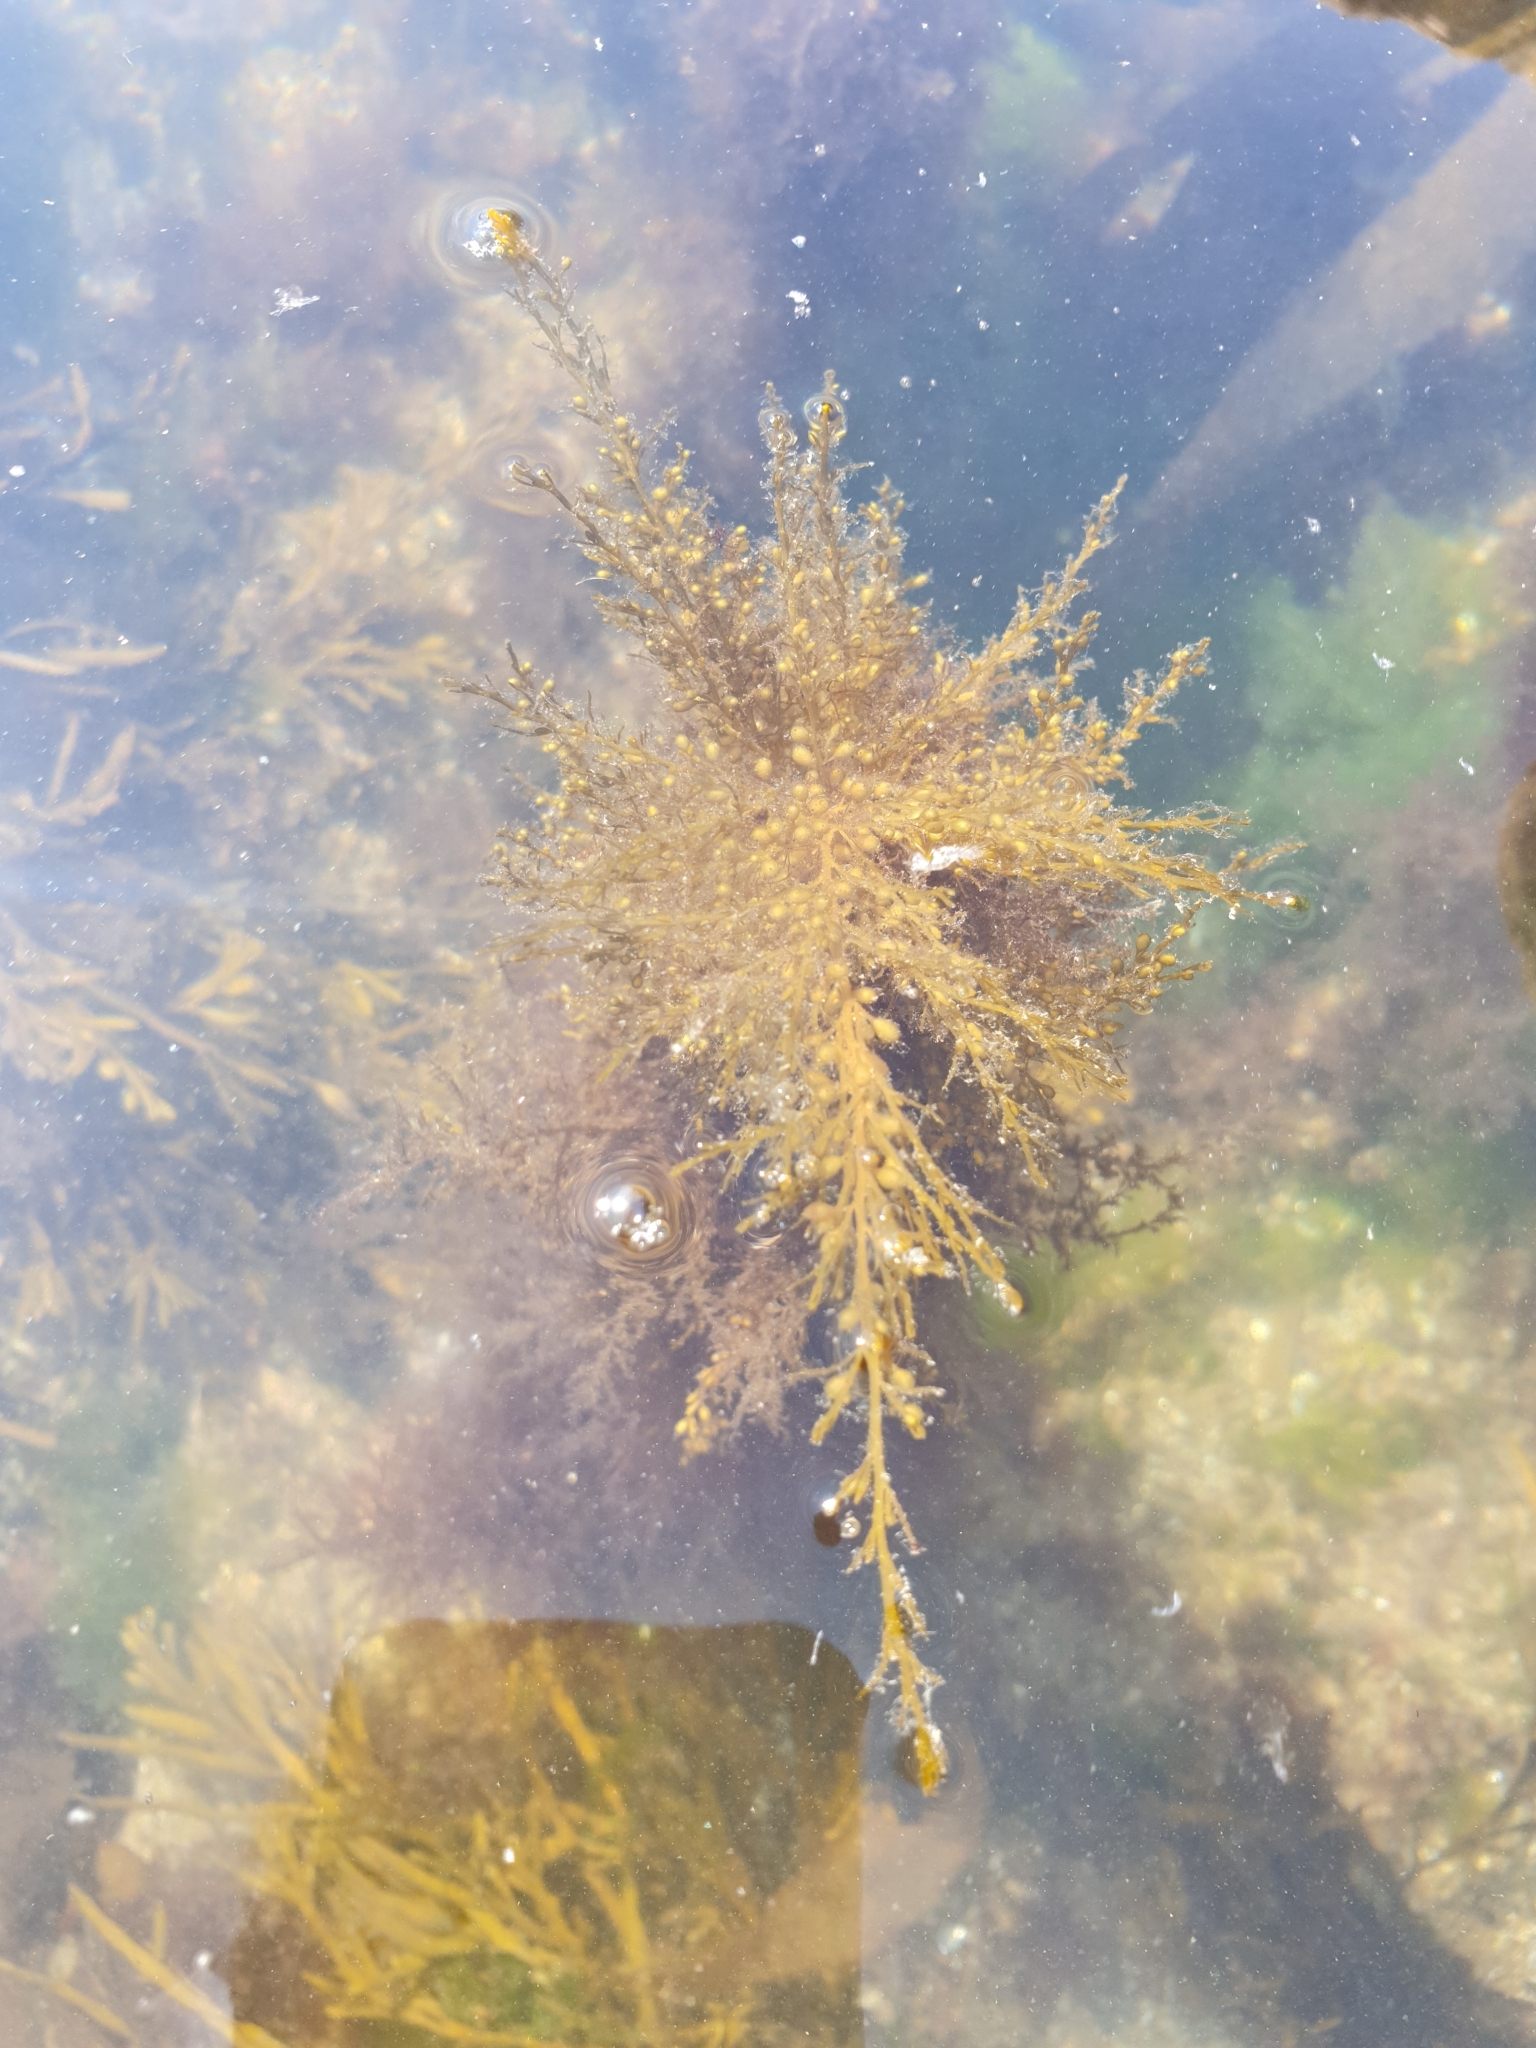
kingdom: Chromista
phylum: Ochrophyta
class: Phaeophyceae
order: Fucales
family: Sargassaceae
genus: Sargassum
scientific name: Sargassum muticum
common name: Japweed
